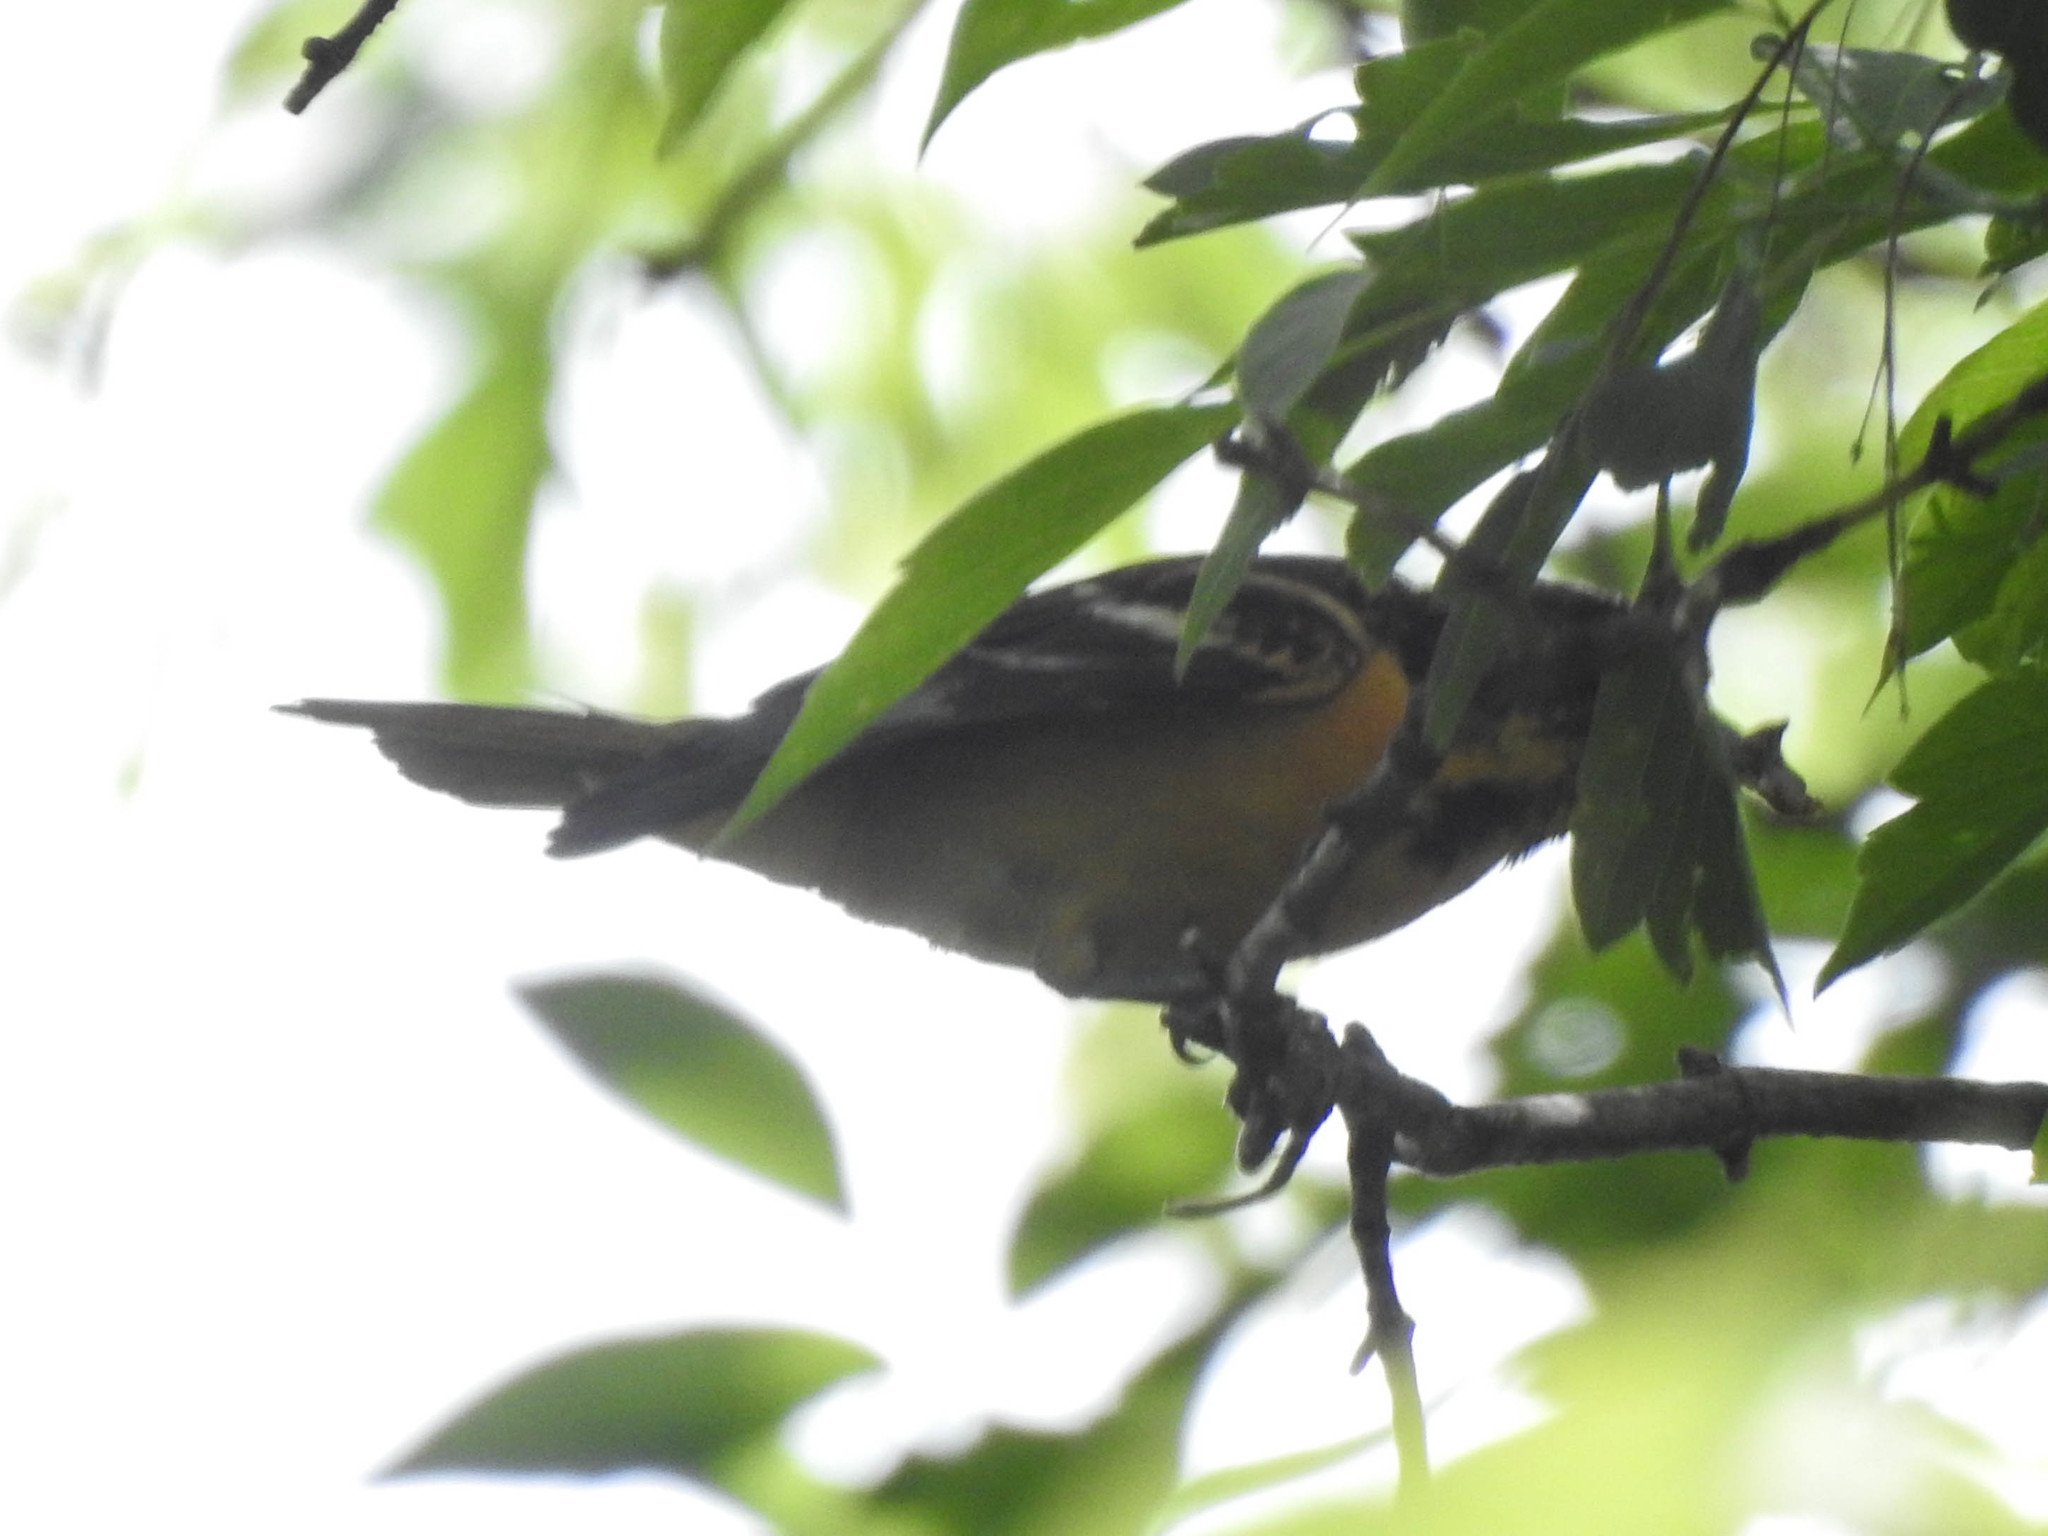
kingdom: Animalia
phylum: Chordata
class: Aves
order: Passeriformes
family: Icteridae
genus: Icterus
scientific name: Icterus galbula
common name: Baltimore oriole
